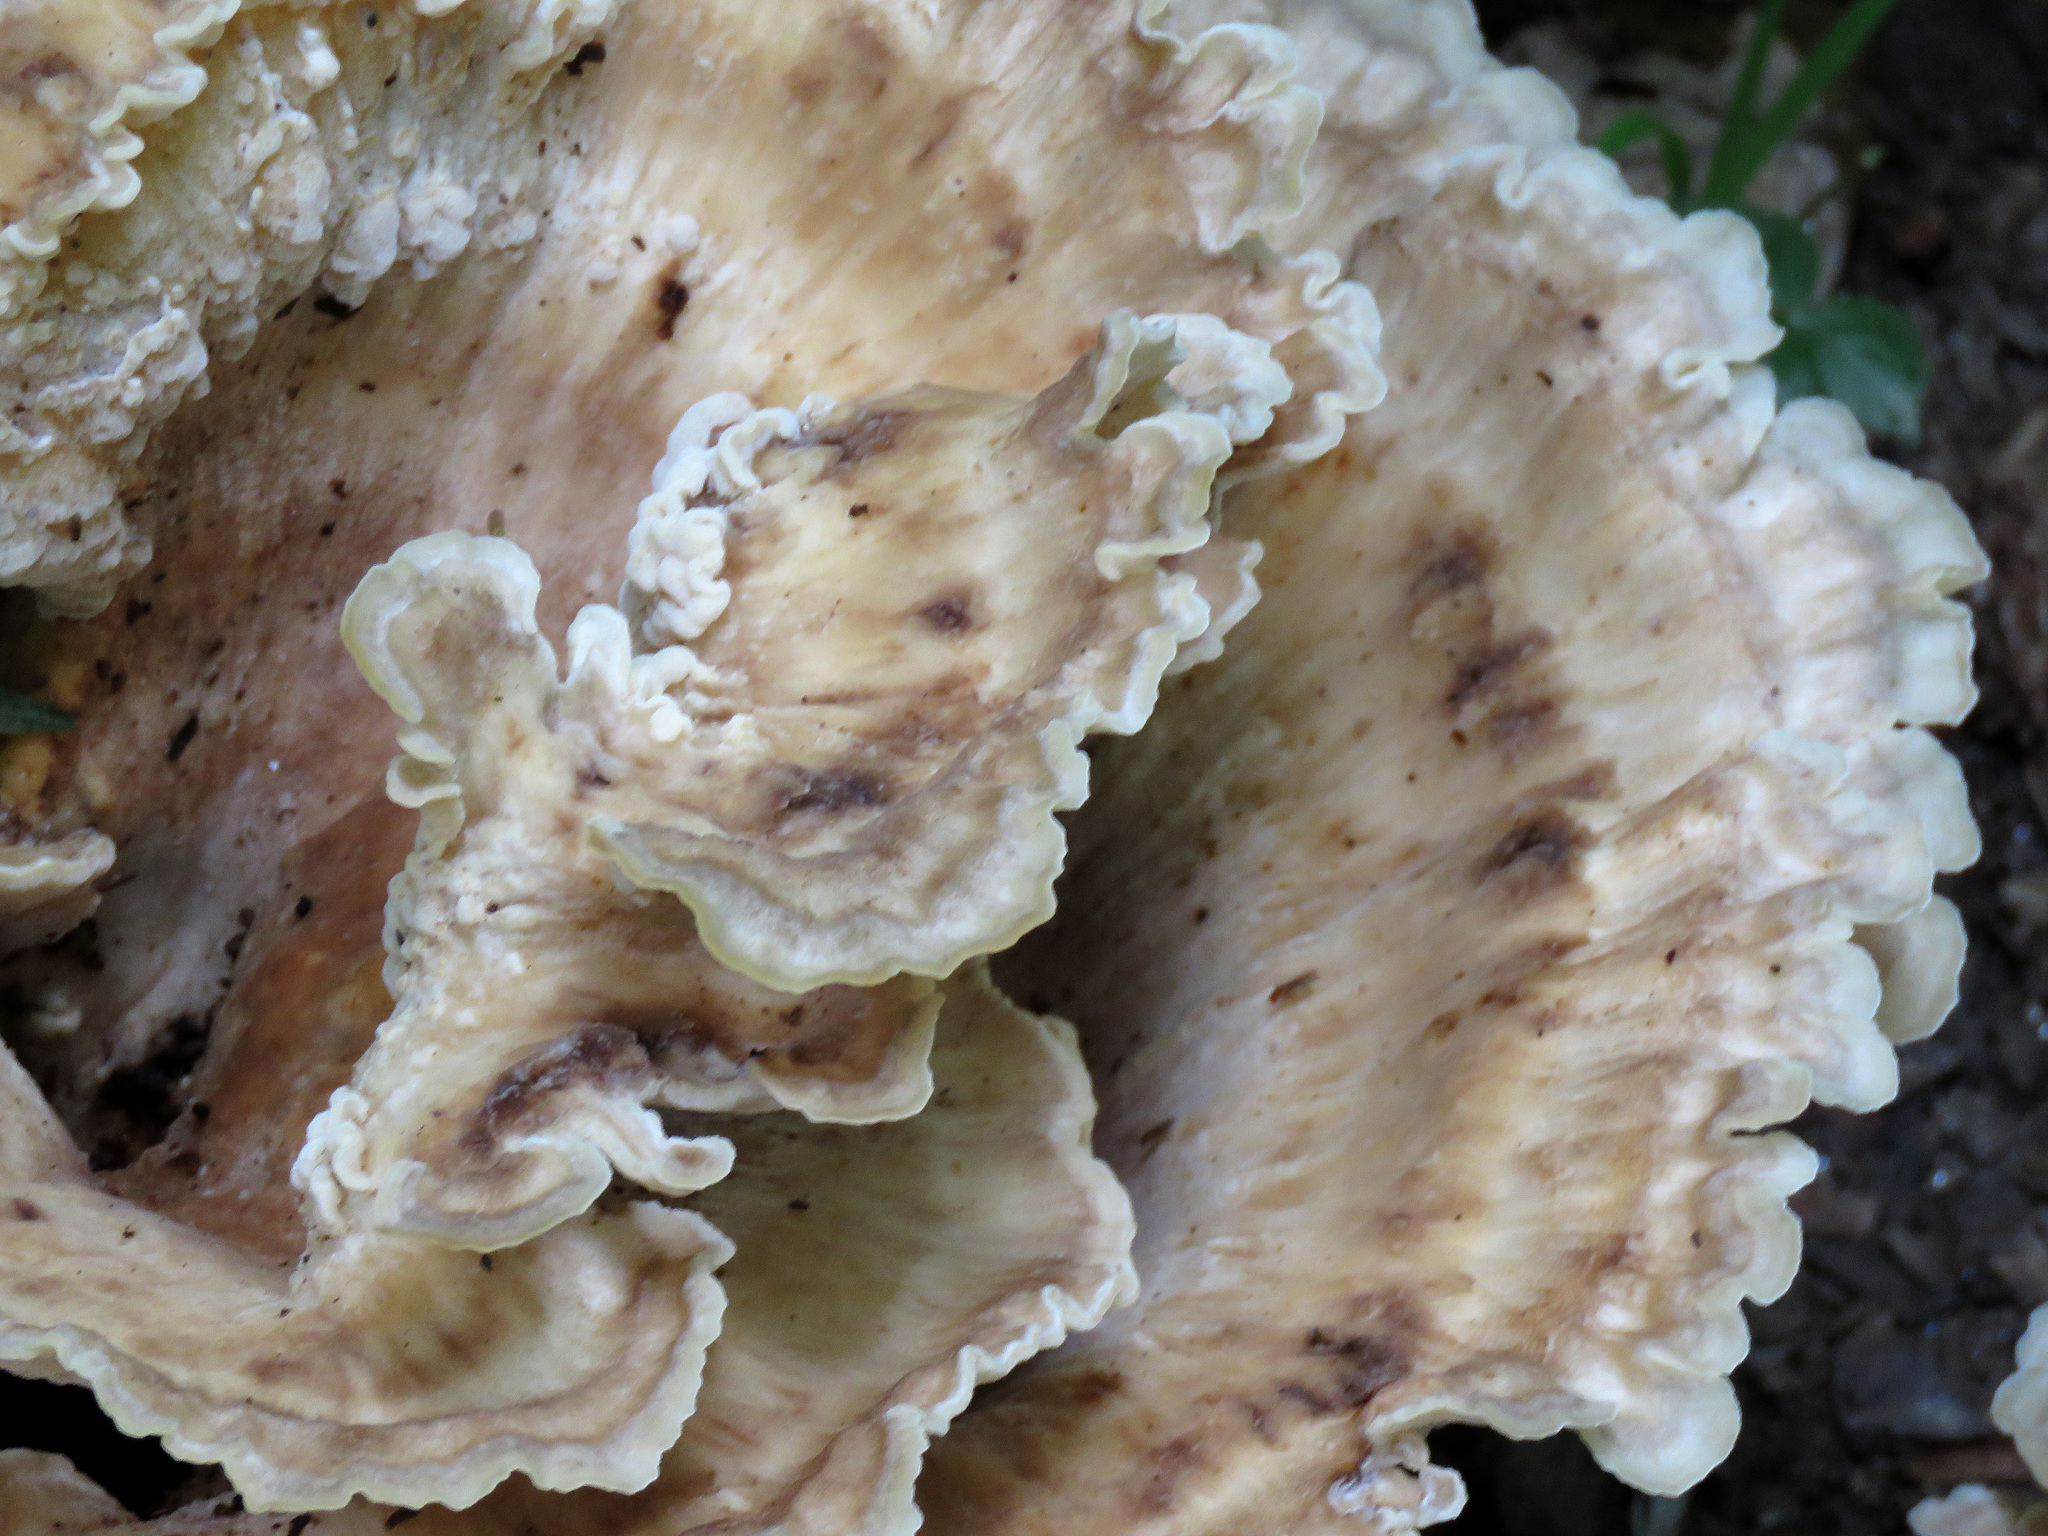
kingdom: Fungi
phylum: Basidiomycota
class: Agaricomycetes
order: Polyporales
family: Meripilaceae
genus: Meripilus
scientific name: Meripilus sumstinei
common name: Black-staining polypore
